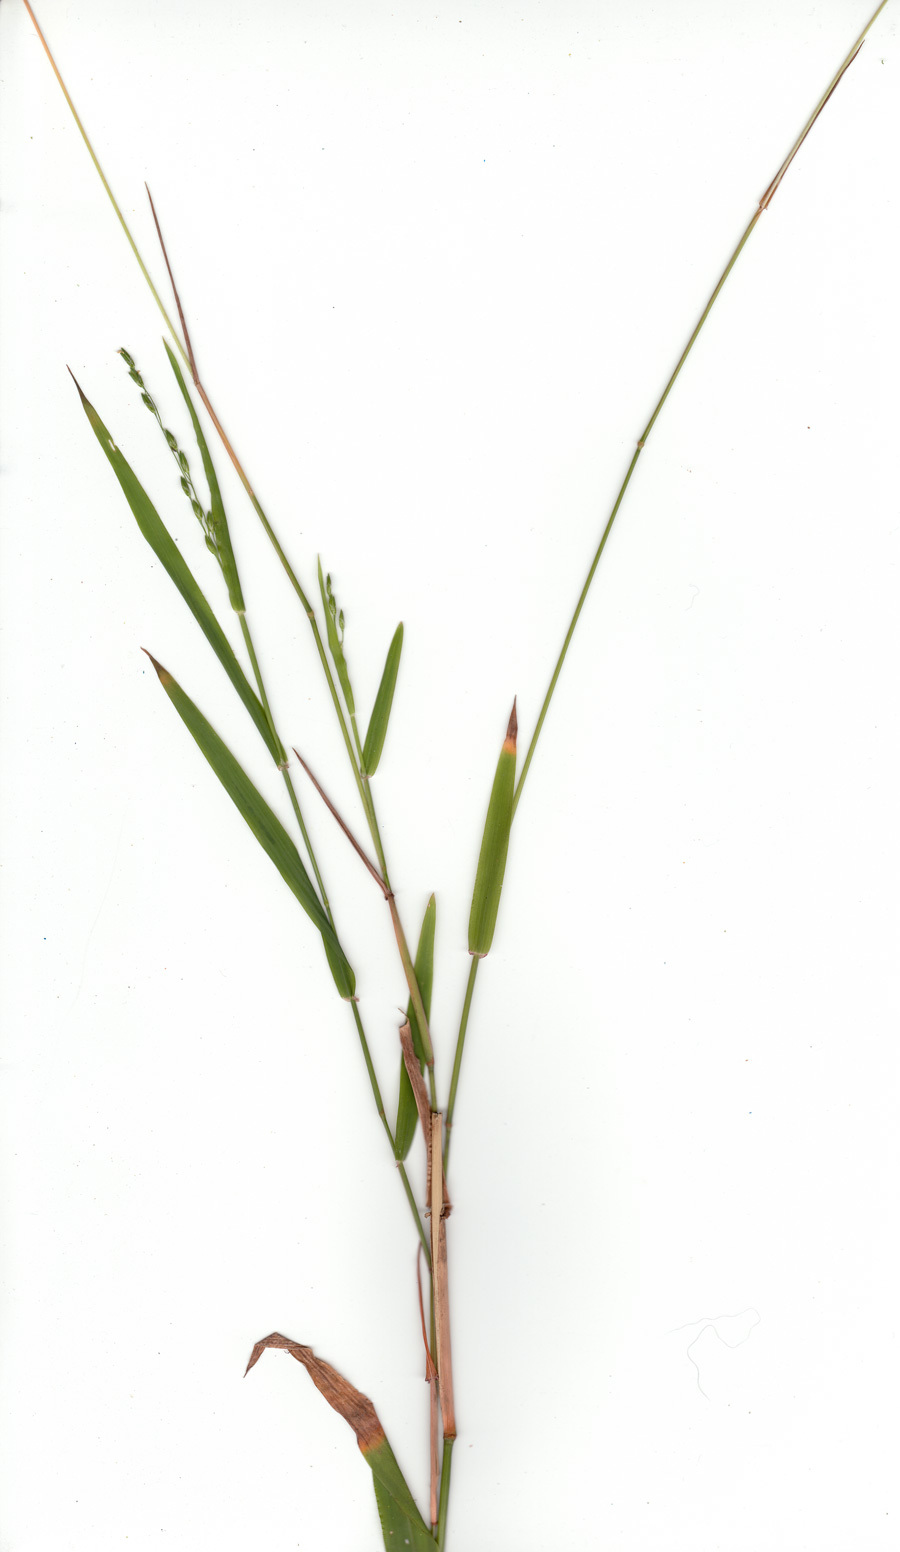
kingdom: Plantae
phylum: Tracheophyta
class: Liliopsida
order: Poales
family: Poaceae
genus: Ehrharta
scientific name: Ehrharta erecta
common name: Panic veldtgrass
